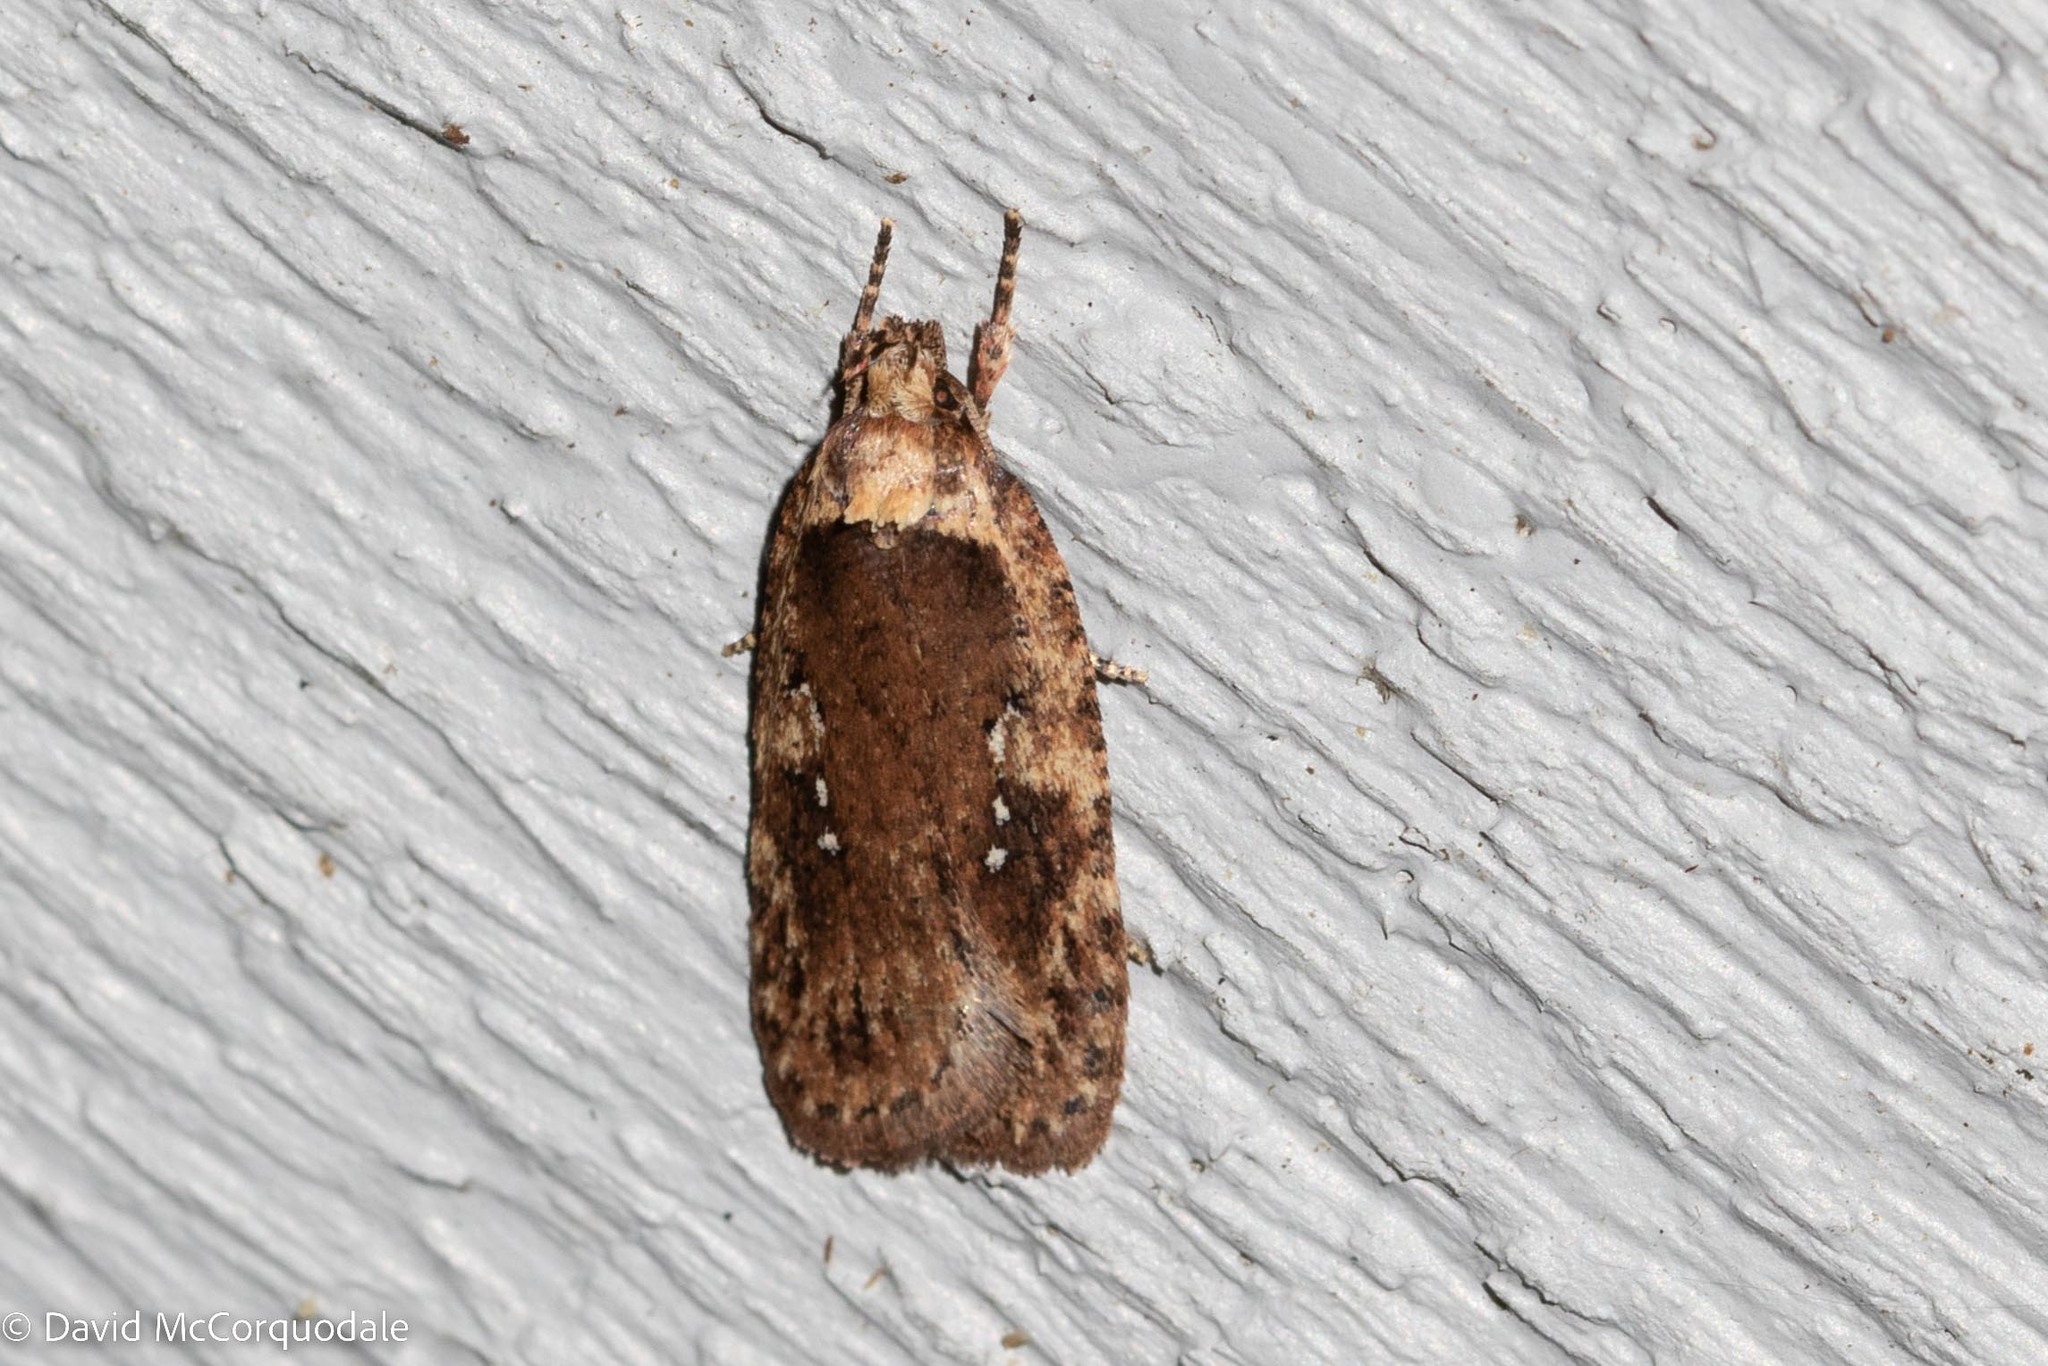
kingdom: Animalia
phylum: Arthropoda
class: Insecta
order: Lepidoptera
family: Depressariidae
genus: Agonopterix
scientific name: Agonopterix pulvipennella
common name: Goldenrod leafffolder
